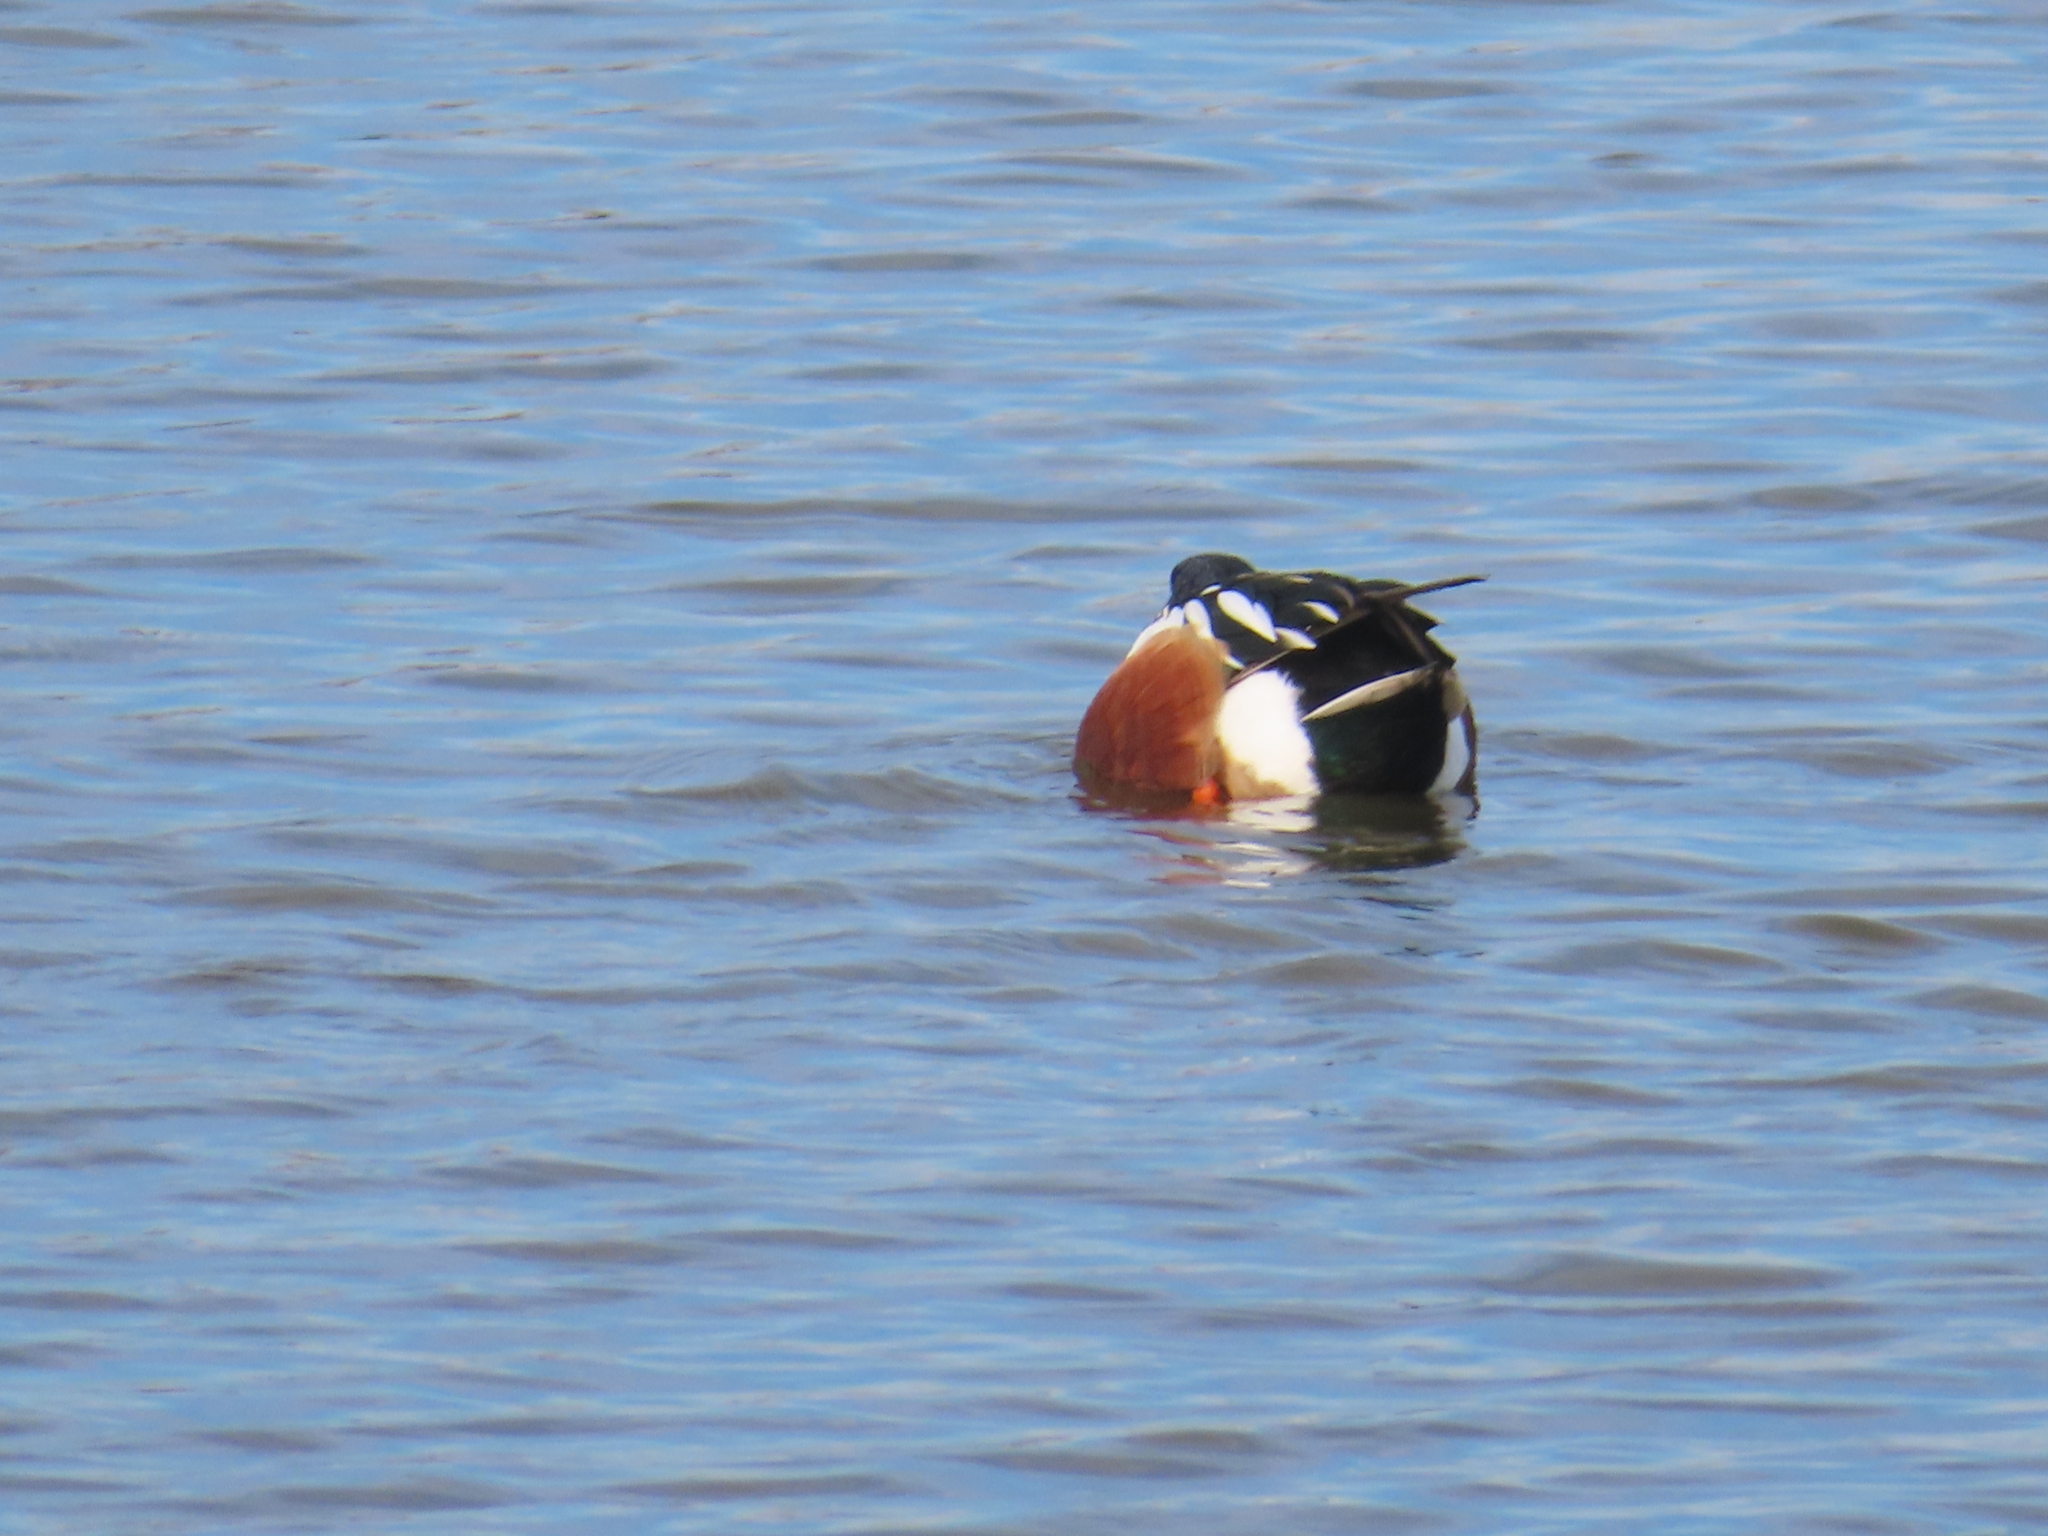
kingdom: Animalia
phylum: Chordata
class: Aves
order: Anseriformes
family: Anatidae
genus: Spatula
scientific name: Spatula clypeata
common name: Northern shoveler
